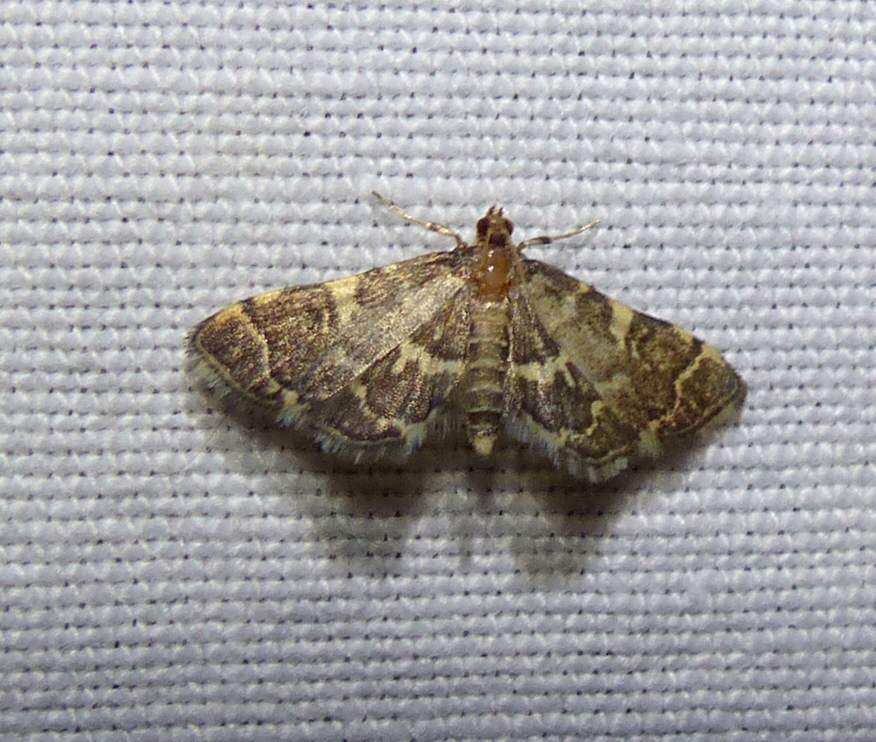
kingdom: Animalia
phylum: Arthropoda
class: Insecta
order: Lepidoptera
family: Crambidae
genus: Anageshna
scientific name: Anageshna primordialis
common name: Yellow-spotted webworm moth
